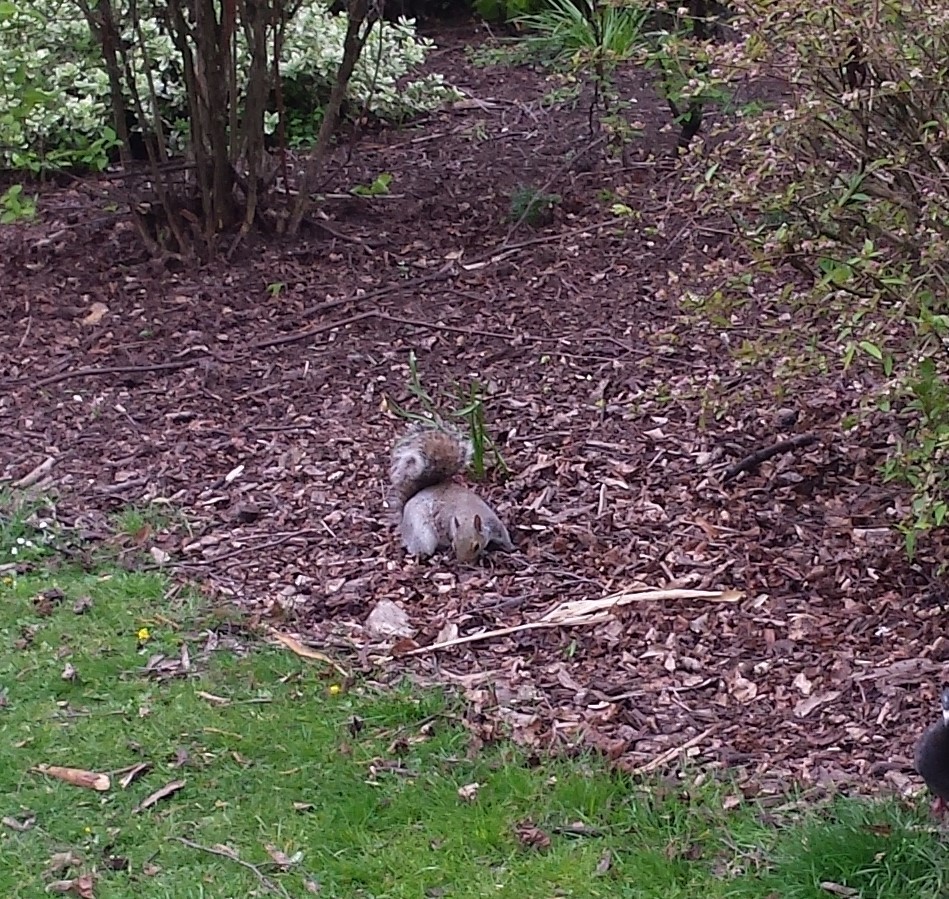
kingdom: Animalia
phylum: Chordata
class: Mammalia
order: Rodentia
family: Sciuridae
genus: Sciurus
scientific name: Sciurus carolinensis
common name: Eastern gray squirrel
